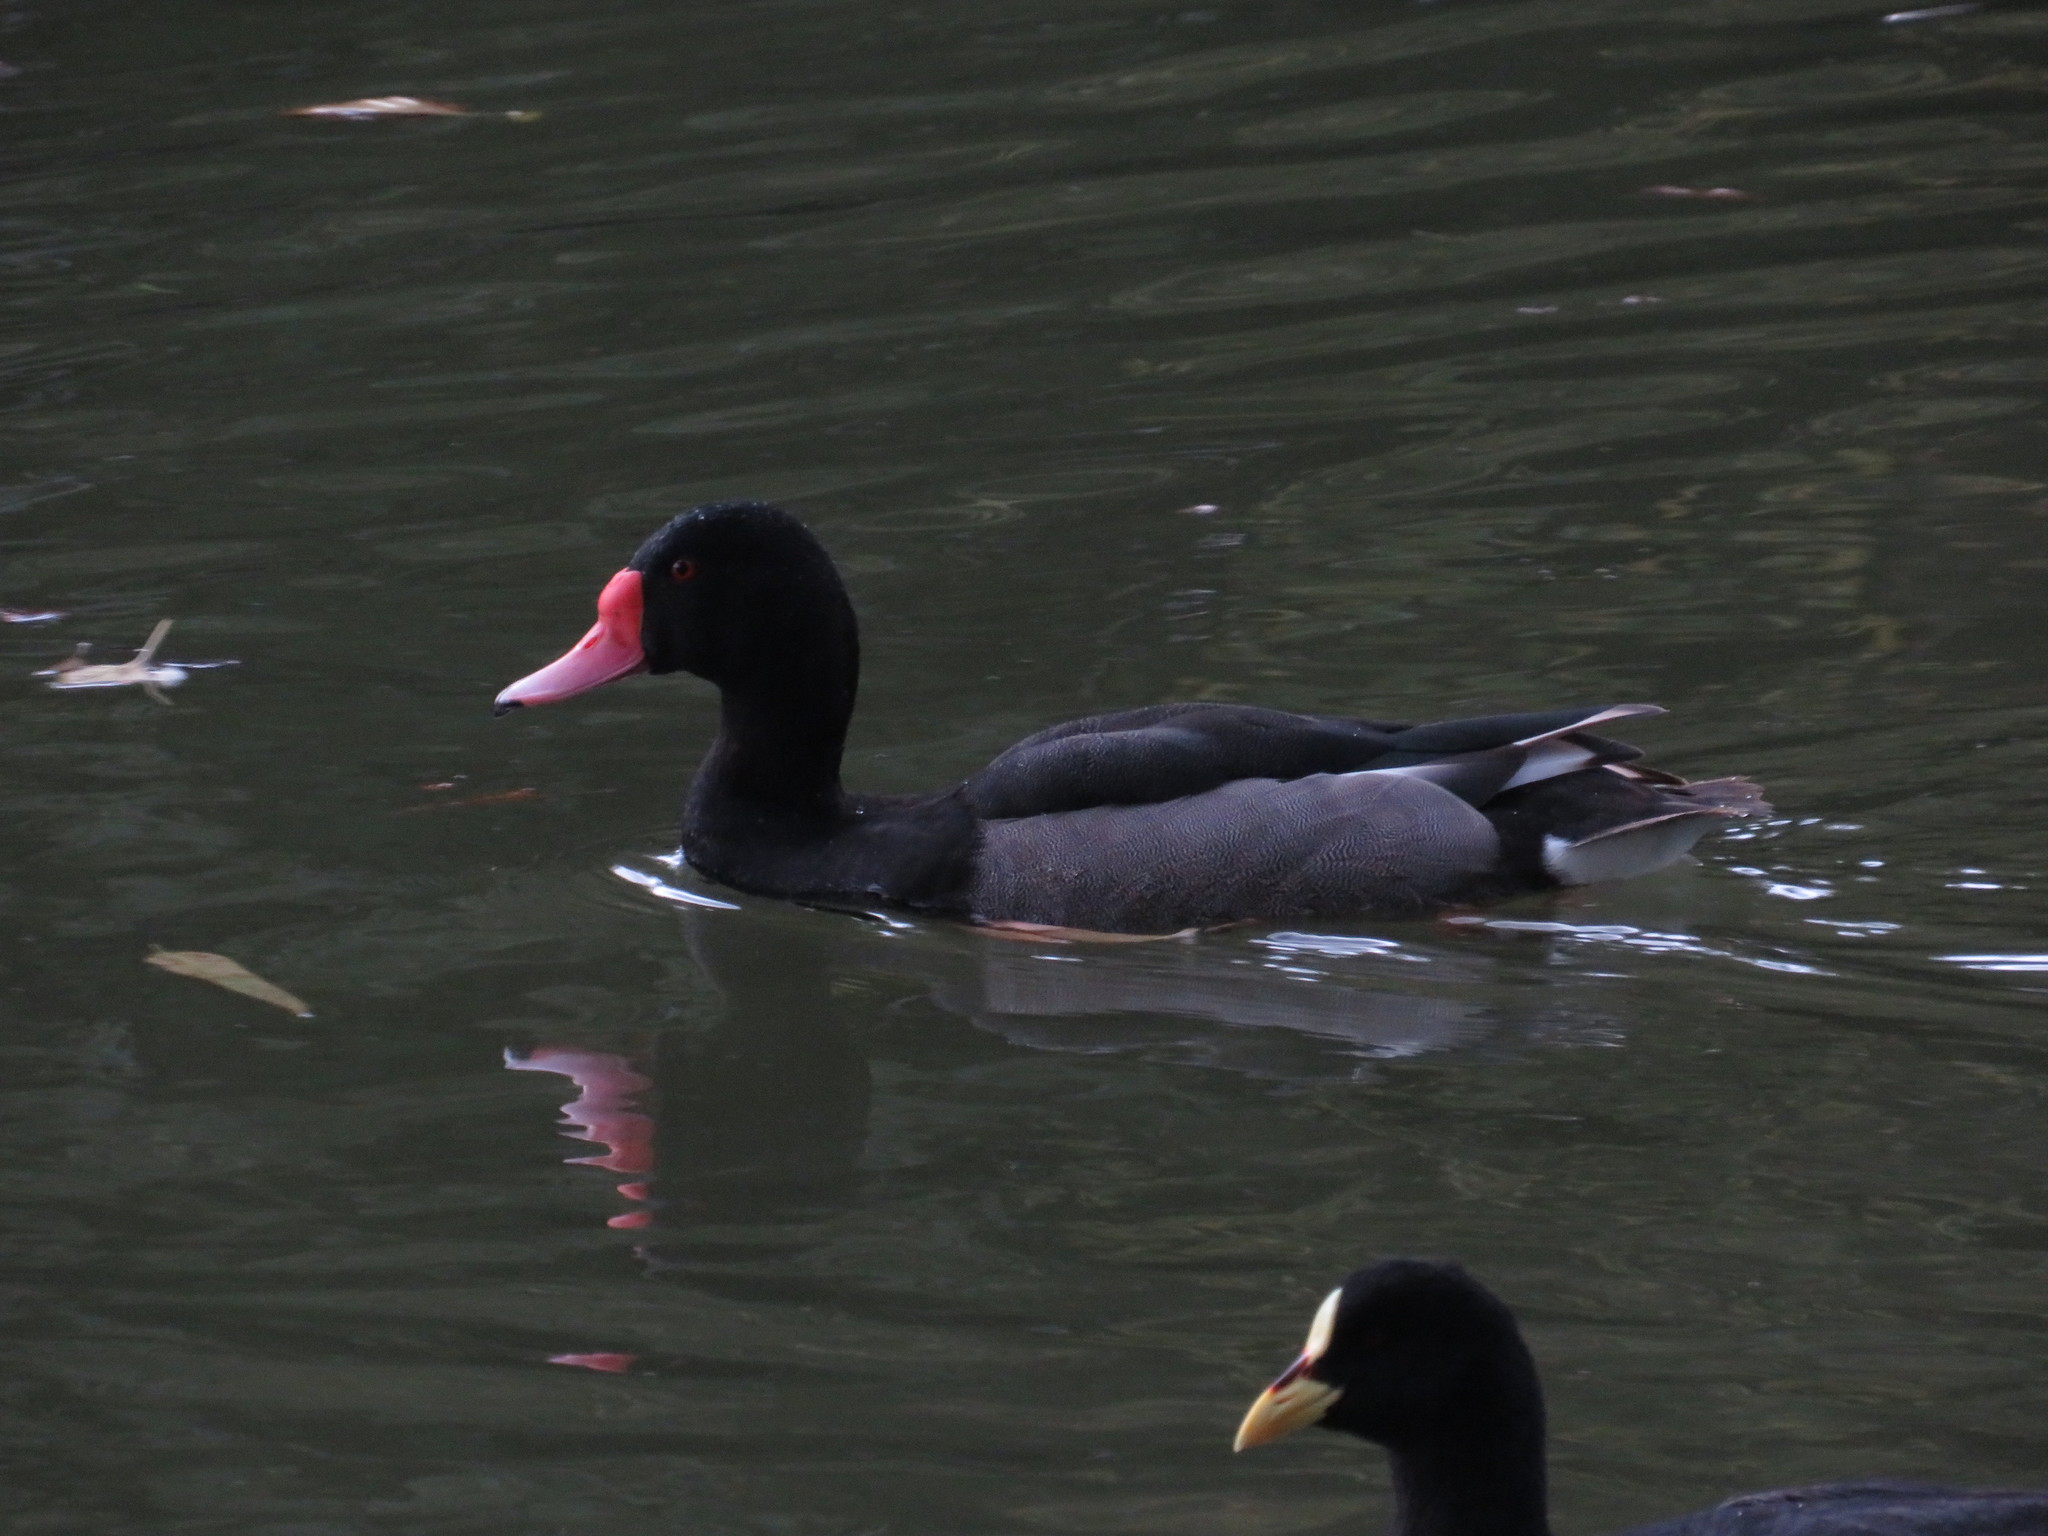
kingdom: Animalia
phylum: Chordata
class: Aves
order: Anseriformes
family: Anatidae
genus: Netta
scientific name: Netta peposaca
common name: Rosy-billed pochard
